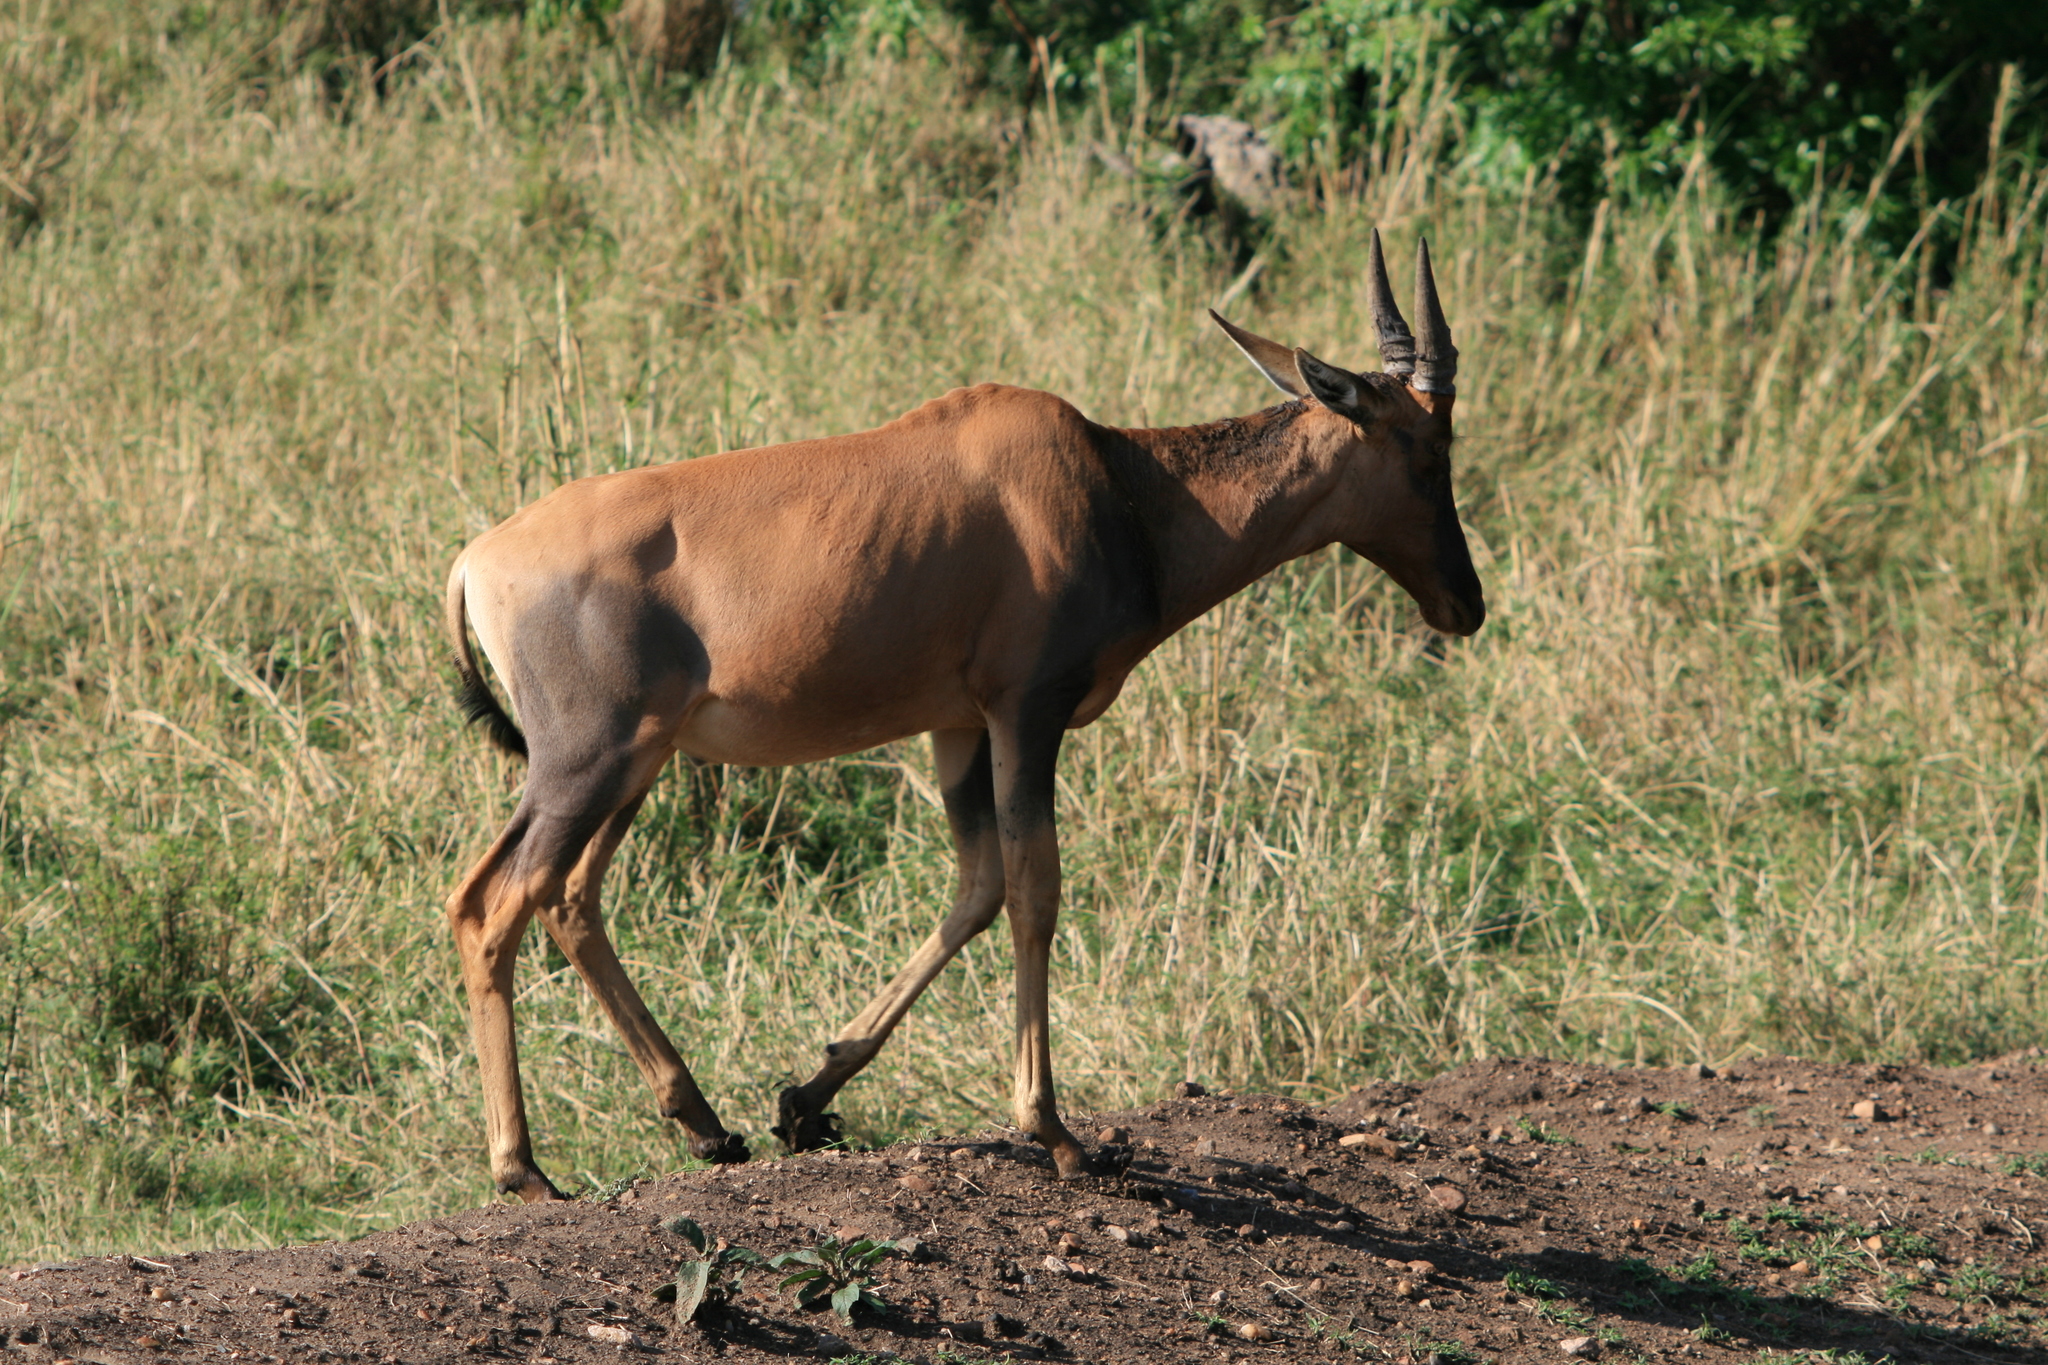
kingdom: Animalia
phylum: Chordata
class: Mammalia
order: Artiodactyla
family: Bovidae
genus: Damaliscus
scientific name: Damaliscus korrigum
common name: Topi
